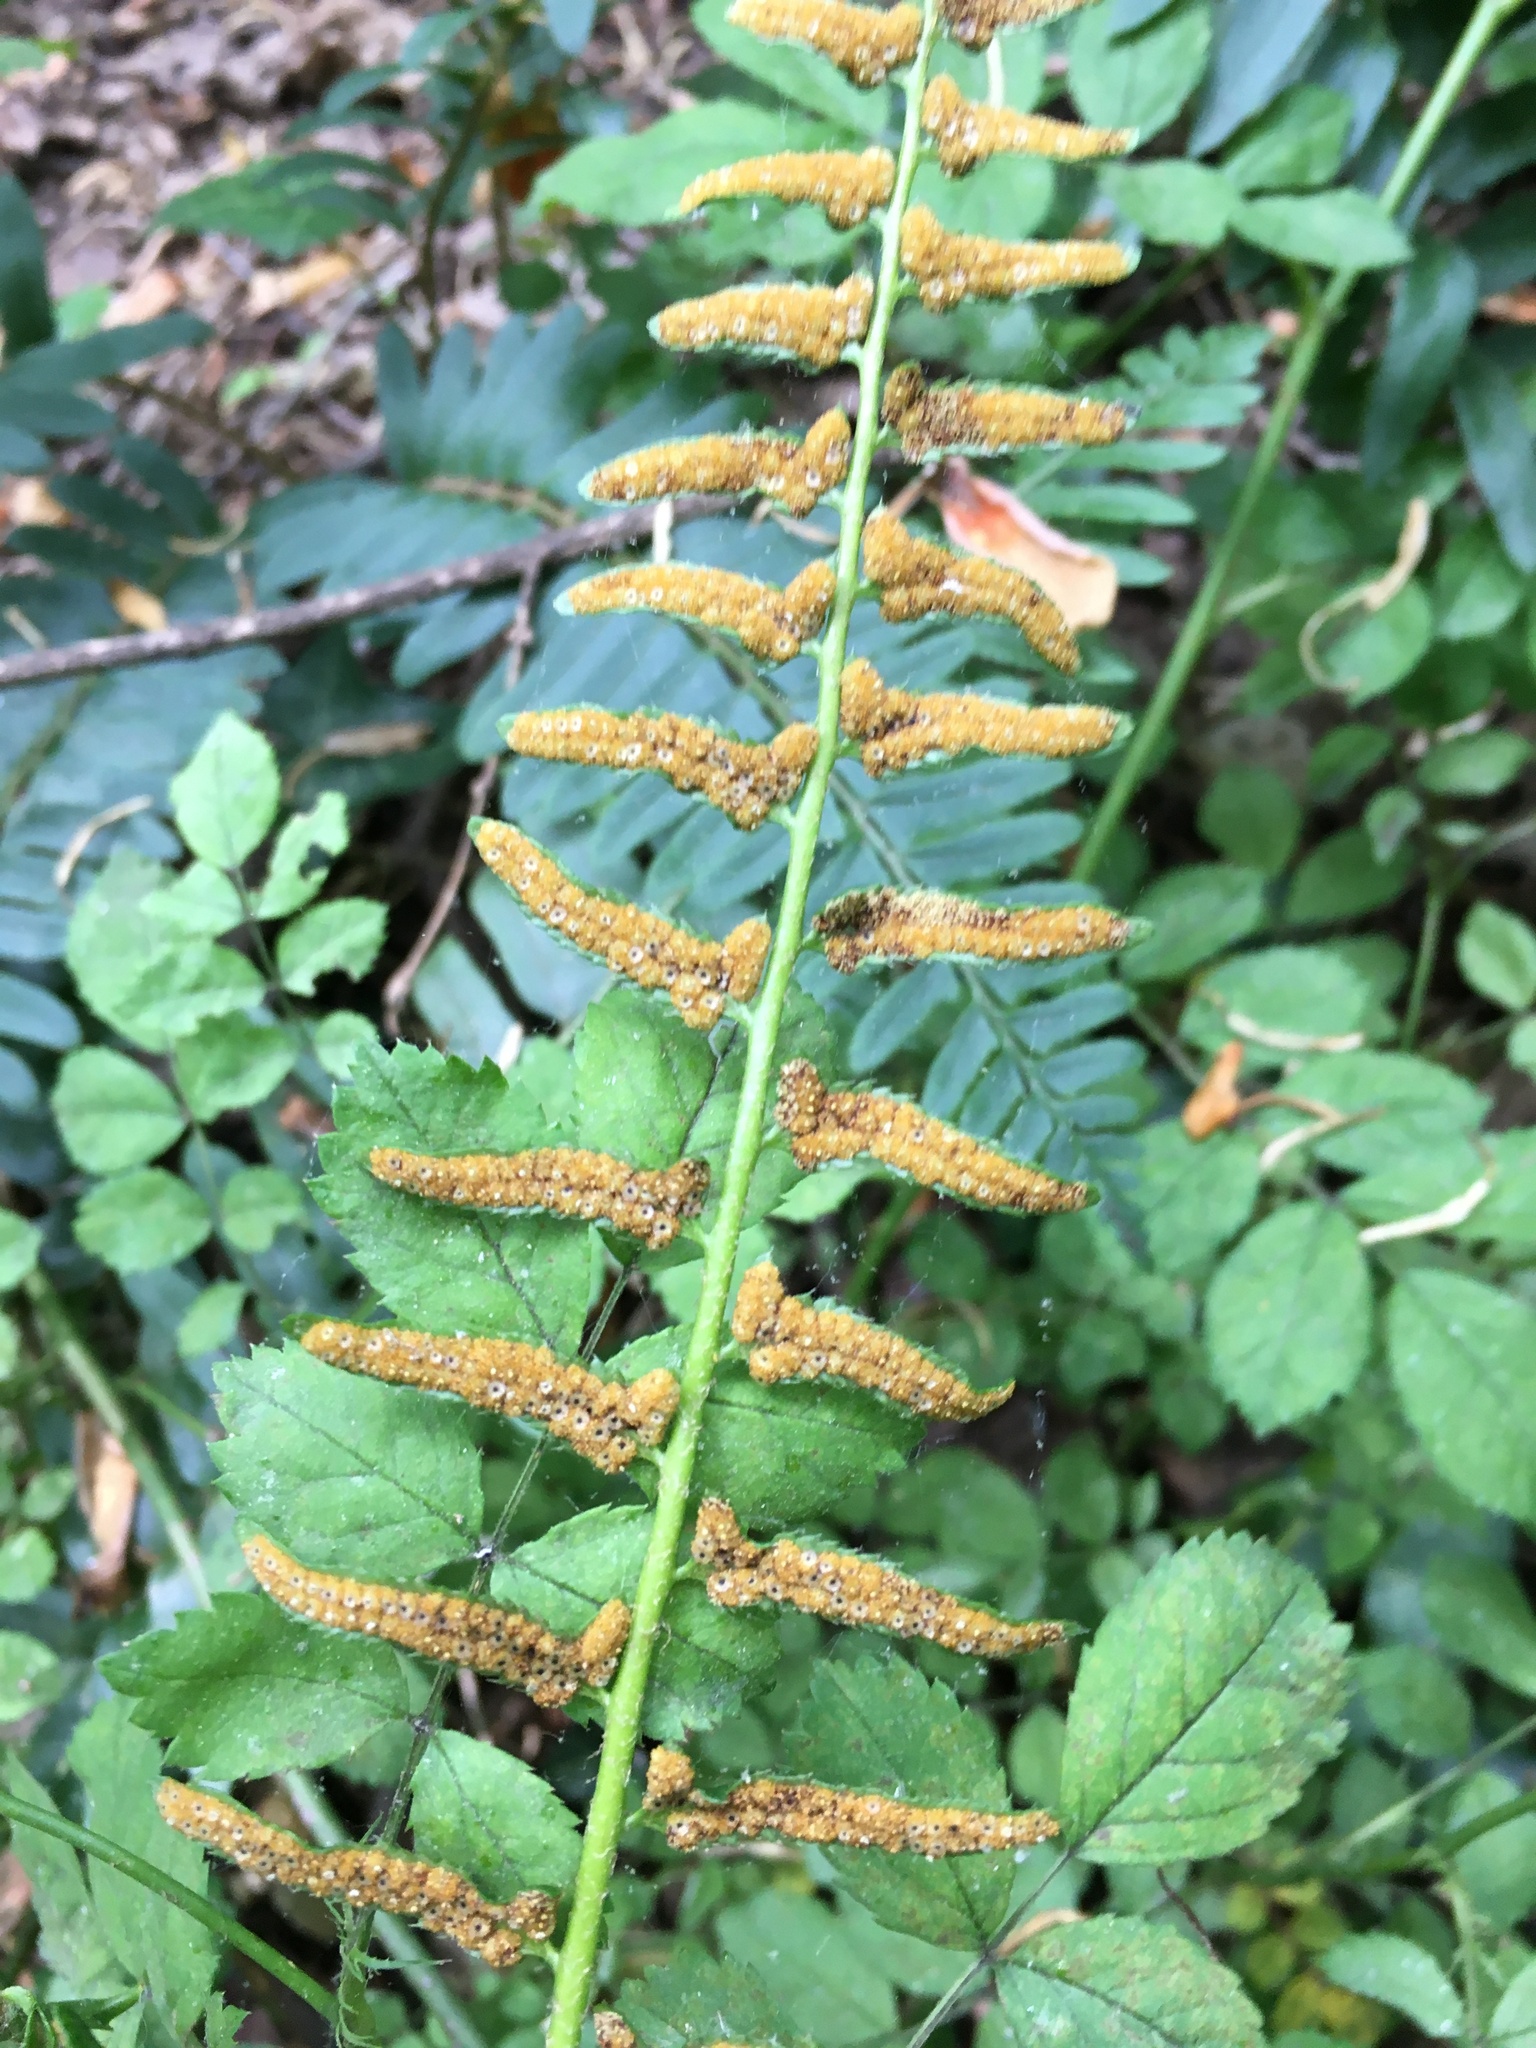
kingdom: Plantae
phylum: Tracheophyta
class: Polypodiopsida
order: Polypodiales
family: Dryopteridaceae
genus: Polystichum
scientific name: Polystichum acrostichoides
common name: Christmas fern
